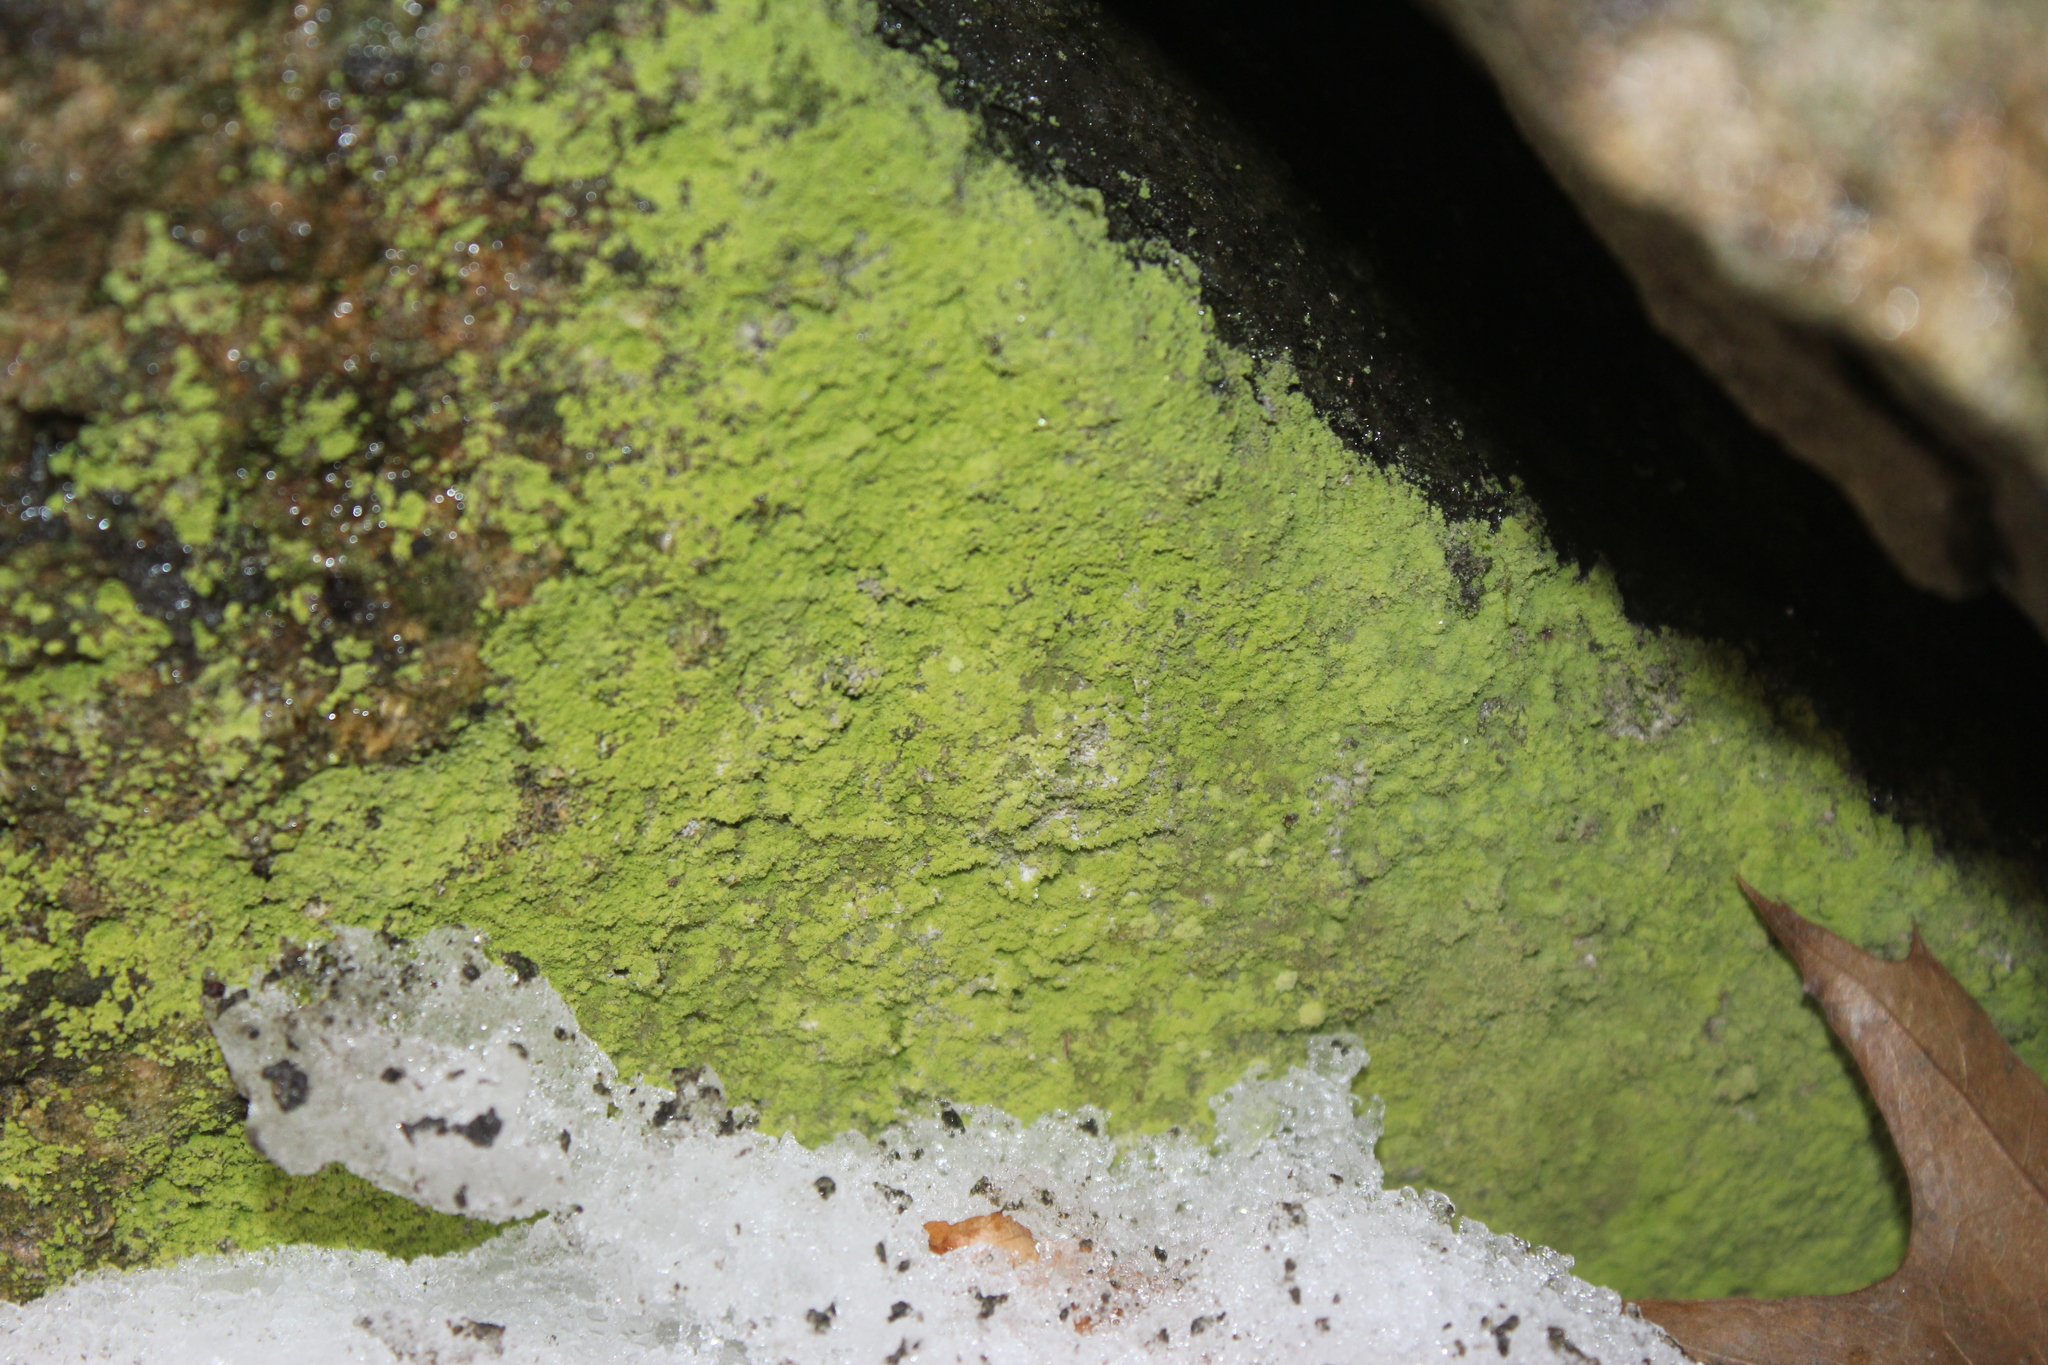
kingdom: Fungi
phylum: Ascomycota
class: Eurotiomycetes
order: Verrucariales
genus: Botryolepraria
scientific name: Botryolepraria lesdainii
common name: Rock candy
